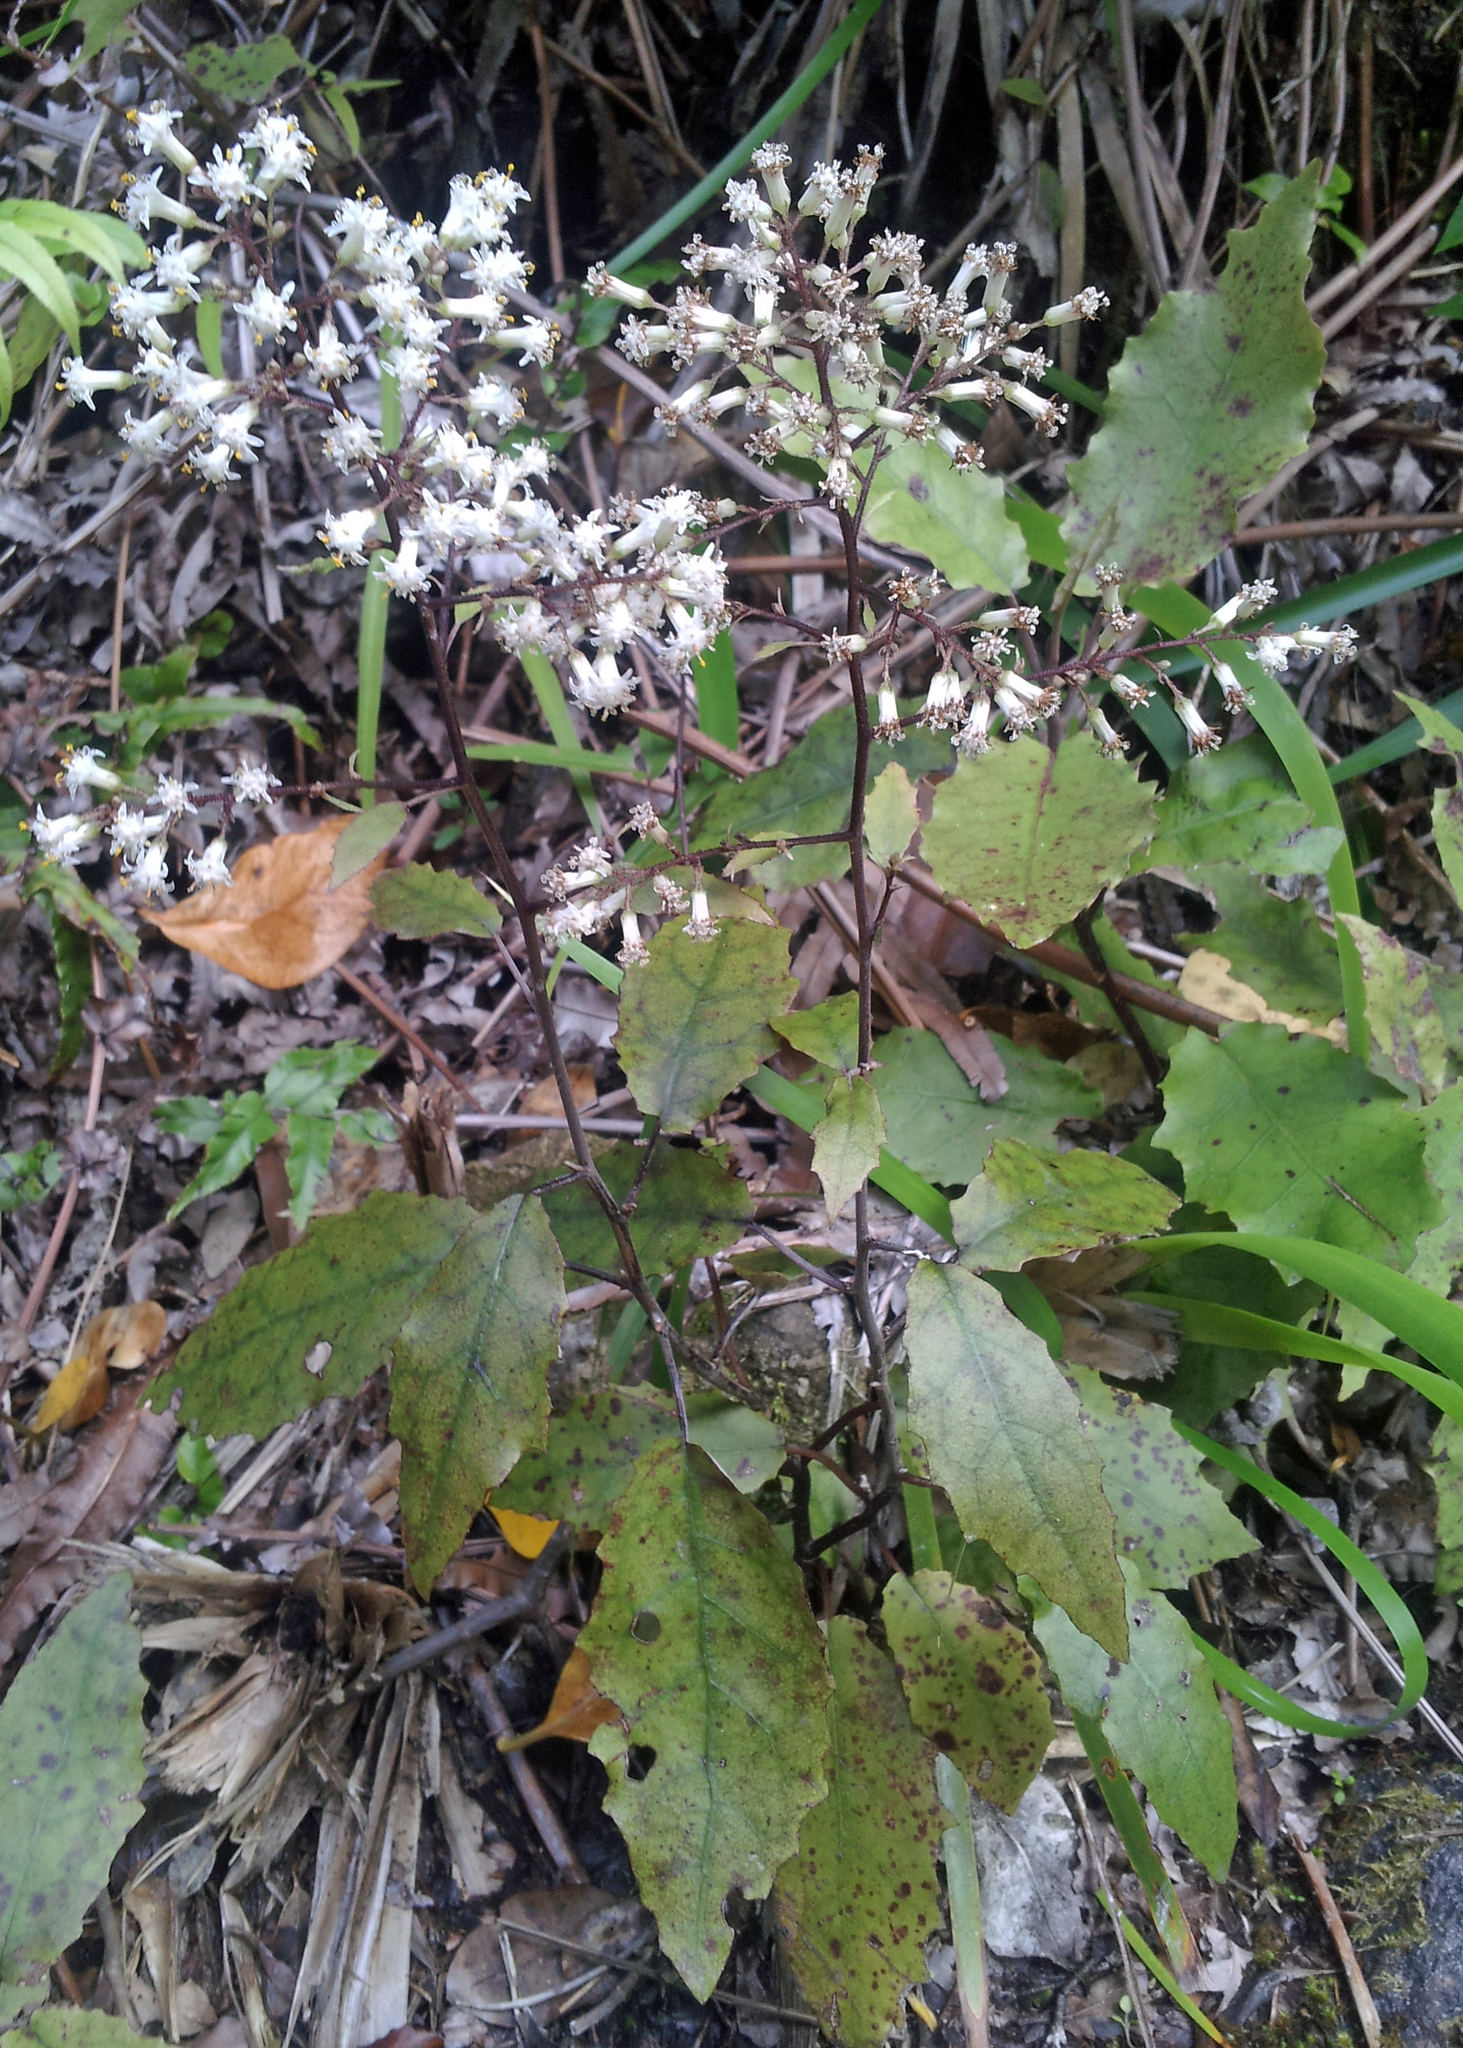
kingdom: Plantae
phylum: Tracheophyta
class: Magnoliopsida
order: Asterales
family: Asteraceae
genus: Brachyglottis
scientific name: Brachyglottis myrianthos
